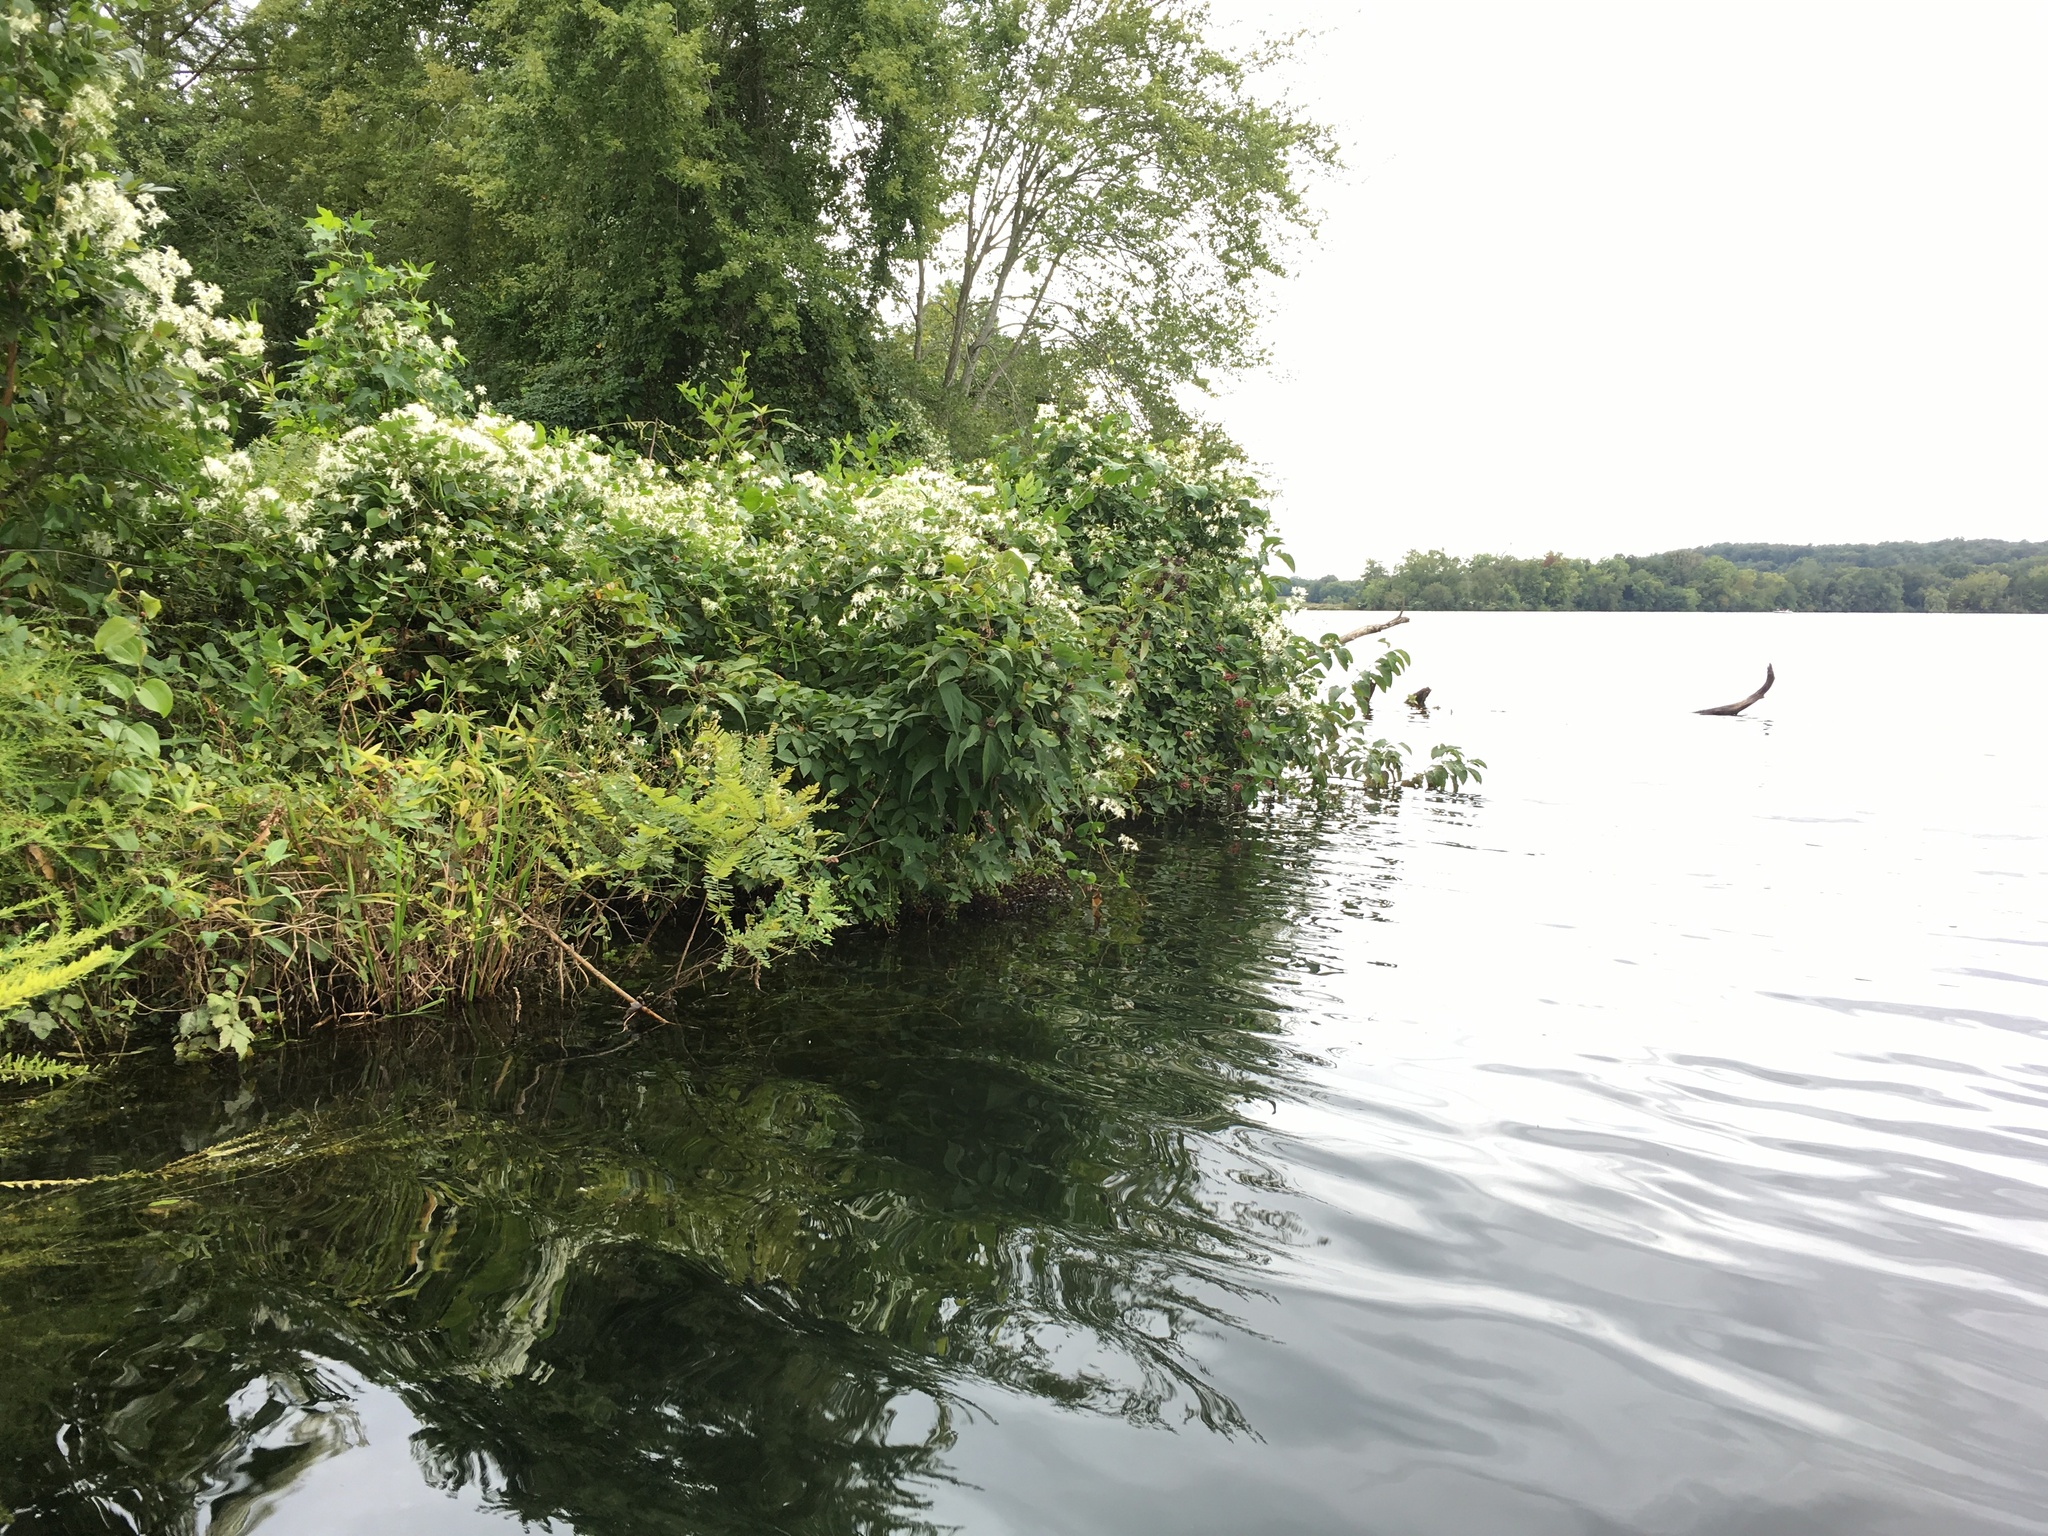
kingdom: Plantae
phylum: Tracheophyta
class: Magnoliopsida
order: Fabales
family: Fabaceae
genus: Apios
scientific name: Apios americana
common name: American potato-bean
